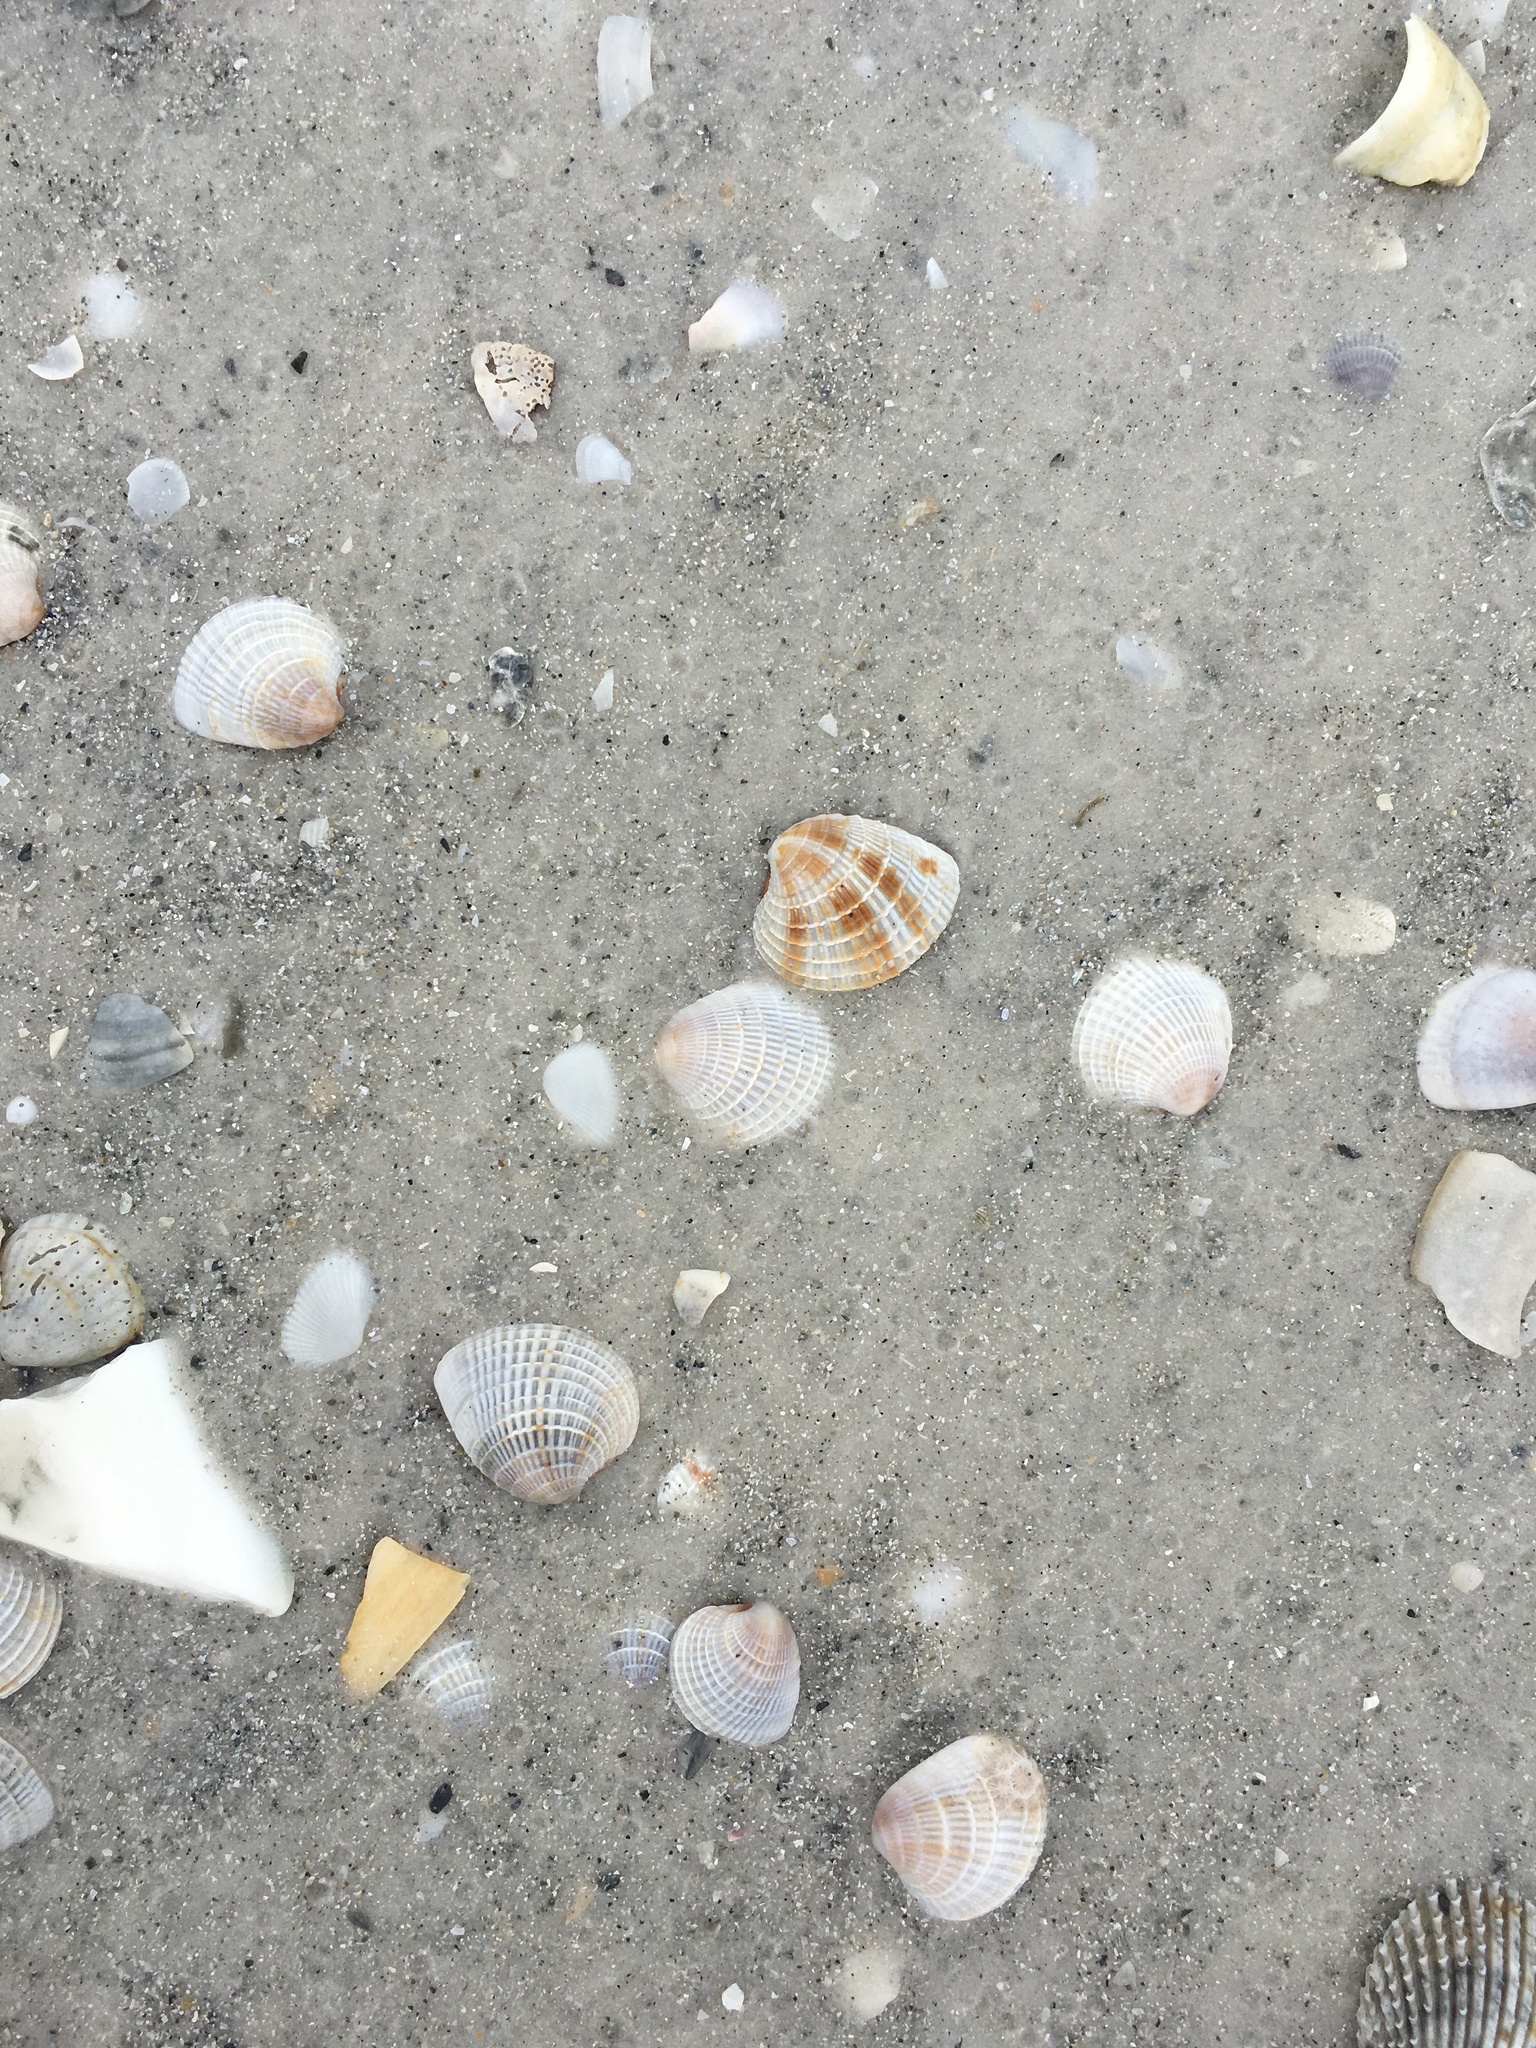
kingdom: Animalia
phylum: Mollusca
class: Bivalvia
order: Venerida
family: Veneridae
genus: Chione
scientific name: Chione elevata
